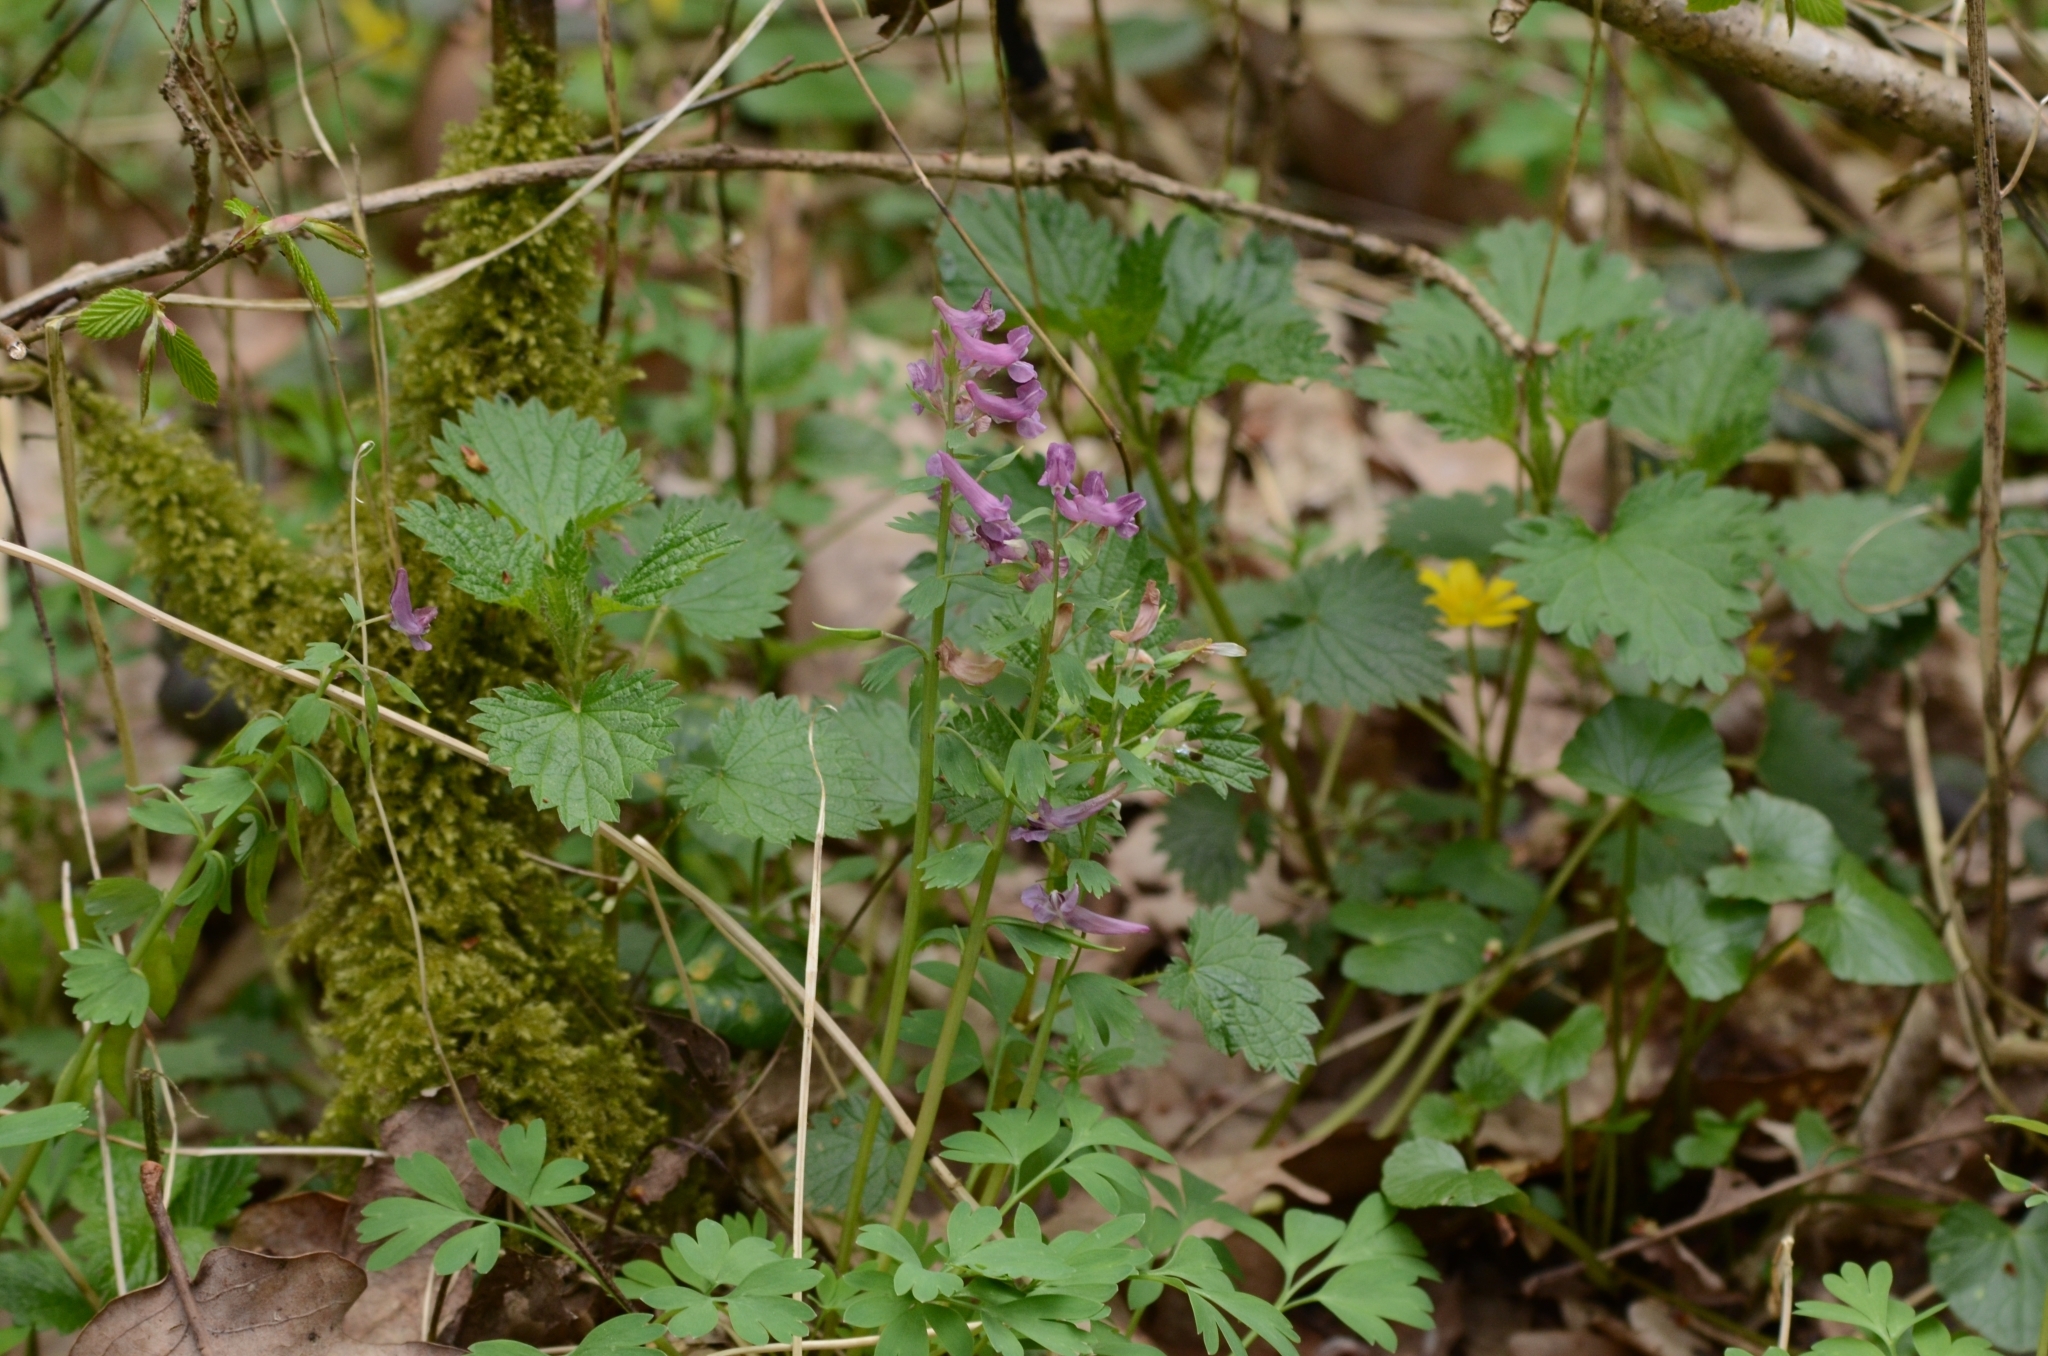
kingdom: Plantae
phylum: Tracheophyta
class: Magnoliopsida
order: Ranunculales
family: Papaveraceae
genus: Corydalis
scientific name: Corydalis solida
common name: Bird-in-a-bush
